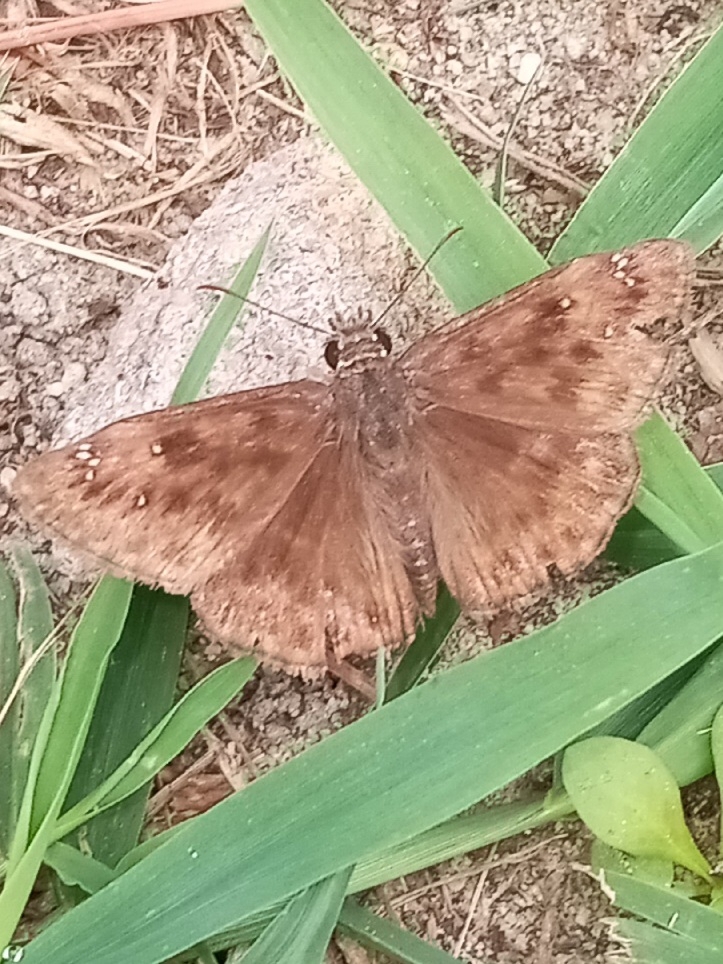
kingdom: Animalia
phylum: Arthropoda
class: Insecta
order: Lepidoptera
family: Hesperiidae
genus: Erynnis
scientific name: Erynnis horatius
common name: Horace's duskywing
